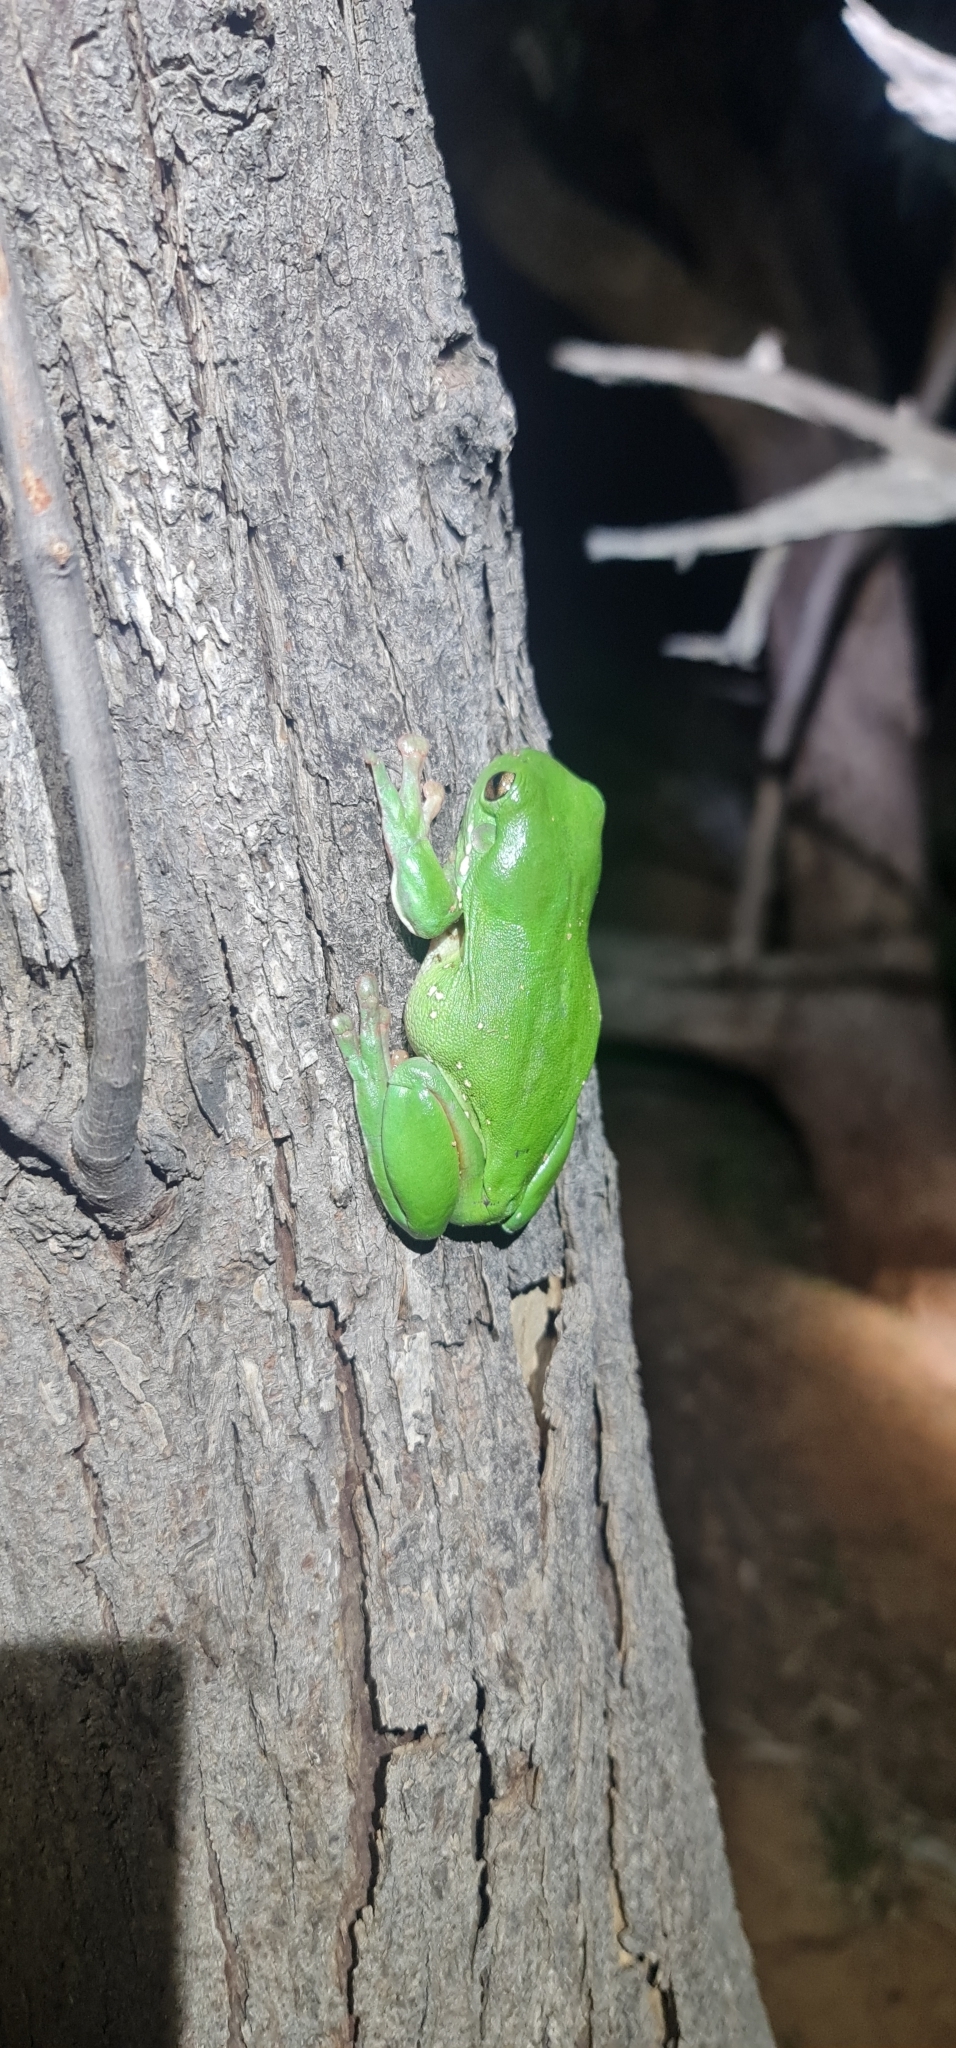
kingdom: Animalia
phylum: Chordata
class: Amphibia
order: Anura
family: Pelodryadidae
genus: Ranoidea
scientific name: Ranoidea caerulea
